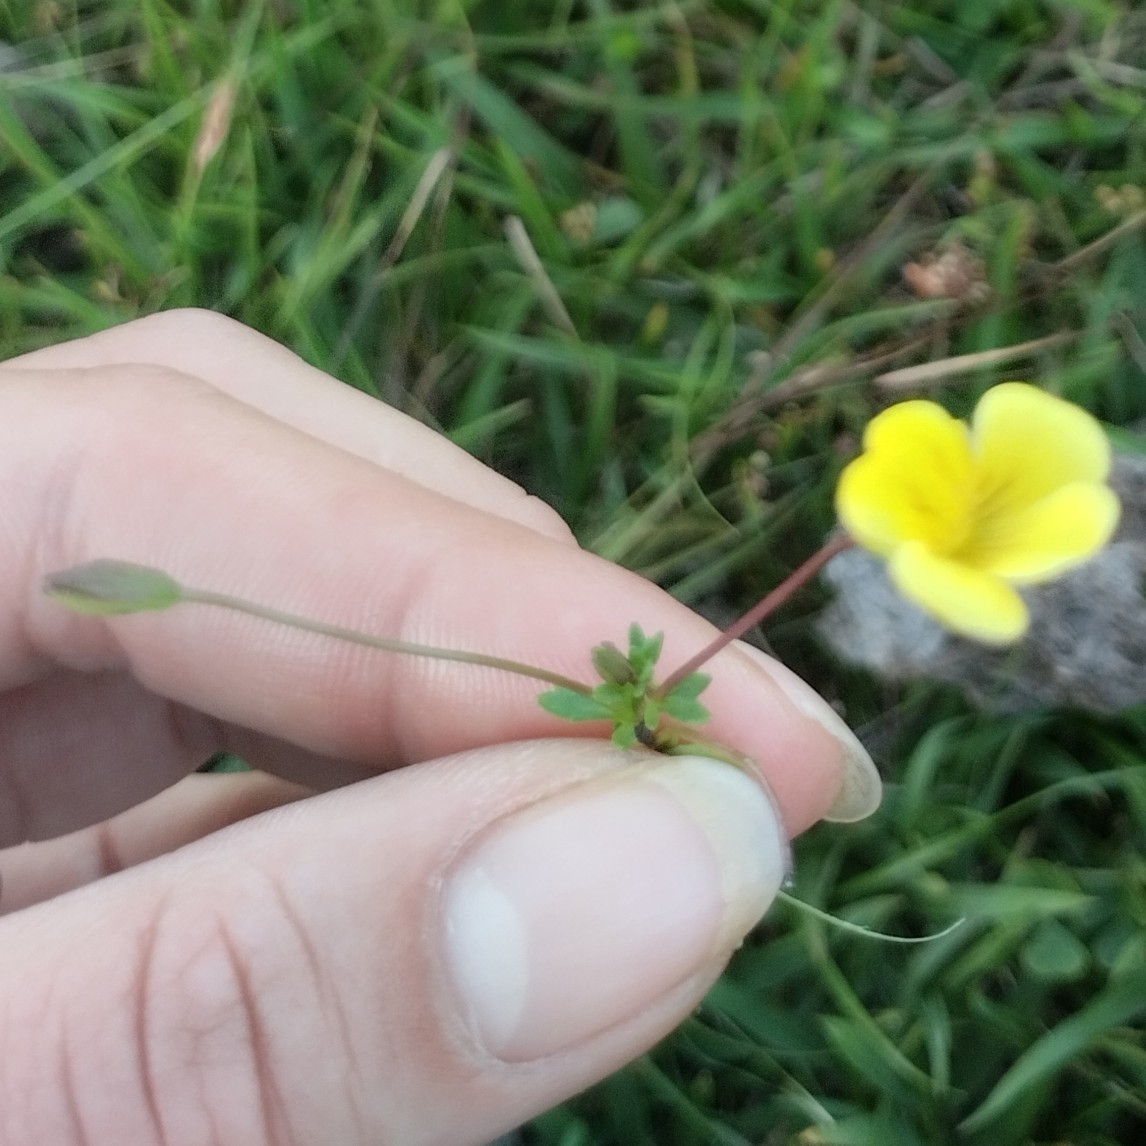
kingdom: Plantae
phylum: Tracheophyta
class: Magnoliopsida
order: Lamiales
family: Plantaginaceae
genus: Mecardonia
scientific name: Mecardonia procumbens
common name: Baby jump-up
